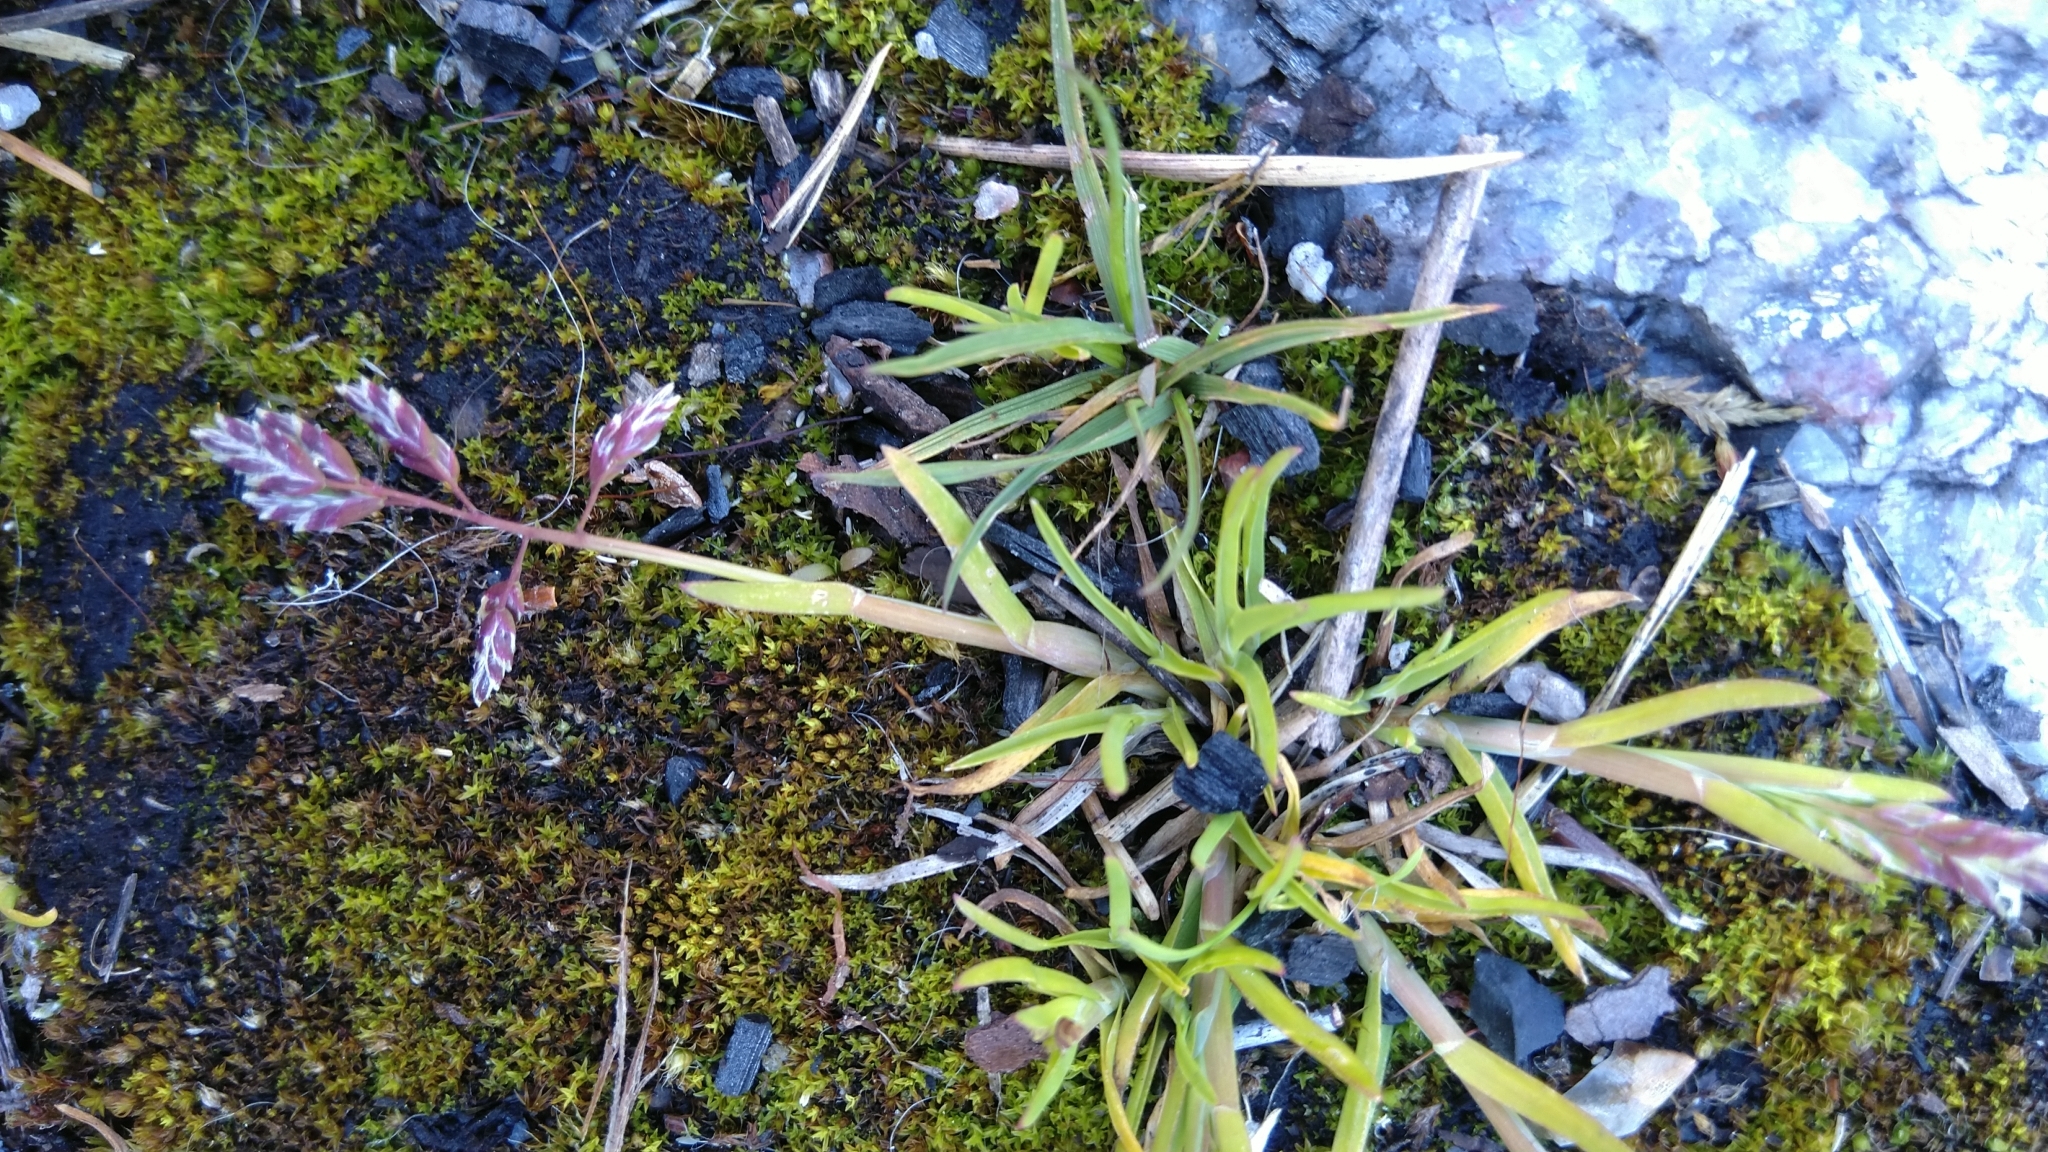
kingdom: Plantae
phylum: Tracheophyta
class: Liliopsida
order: Poales
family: Poaceae
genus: Poa
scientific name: Poa annua
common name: Annual bluegrass
